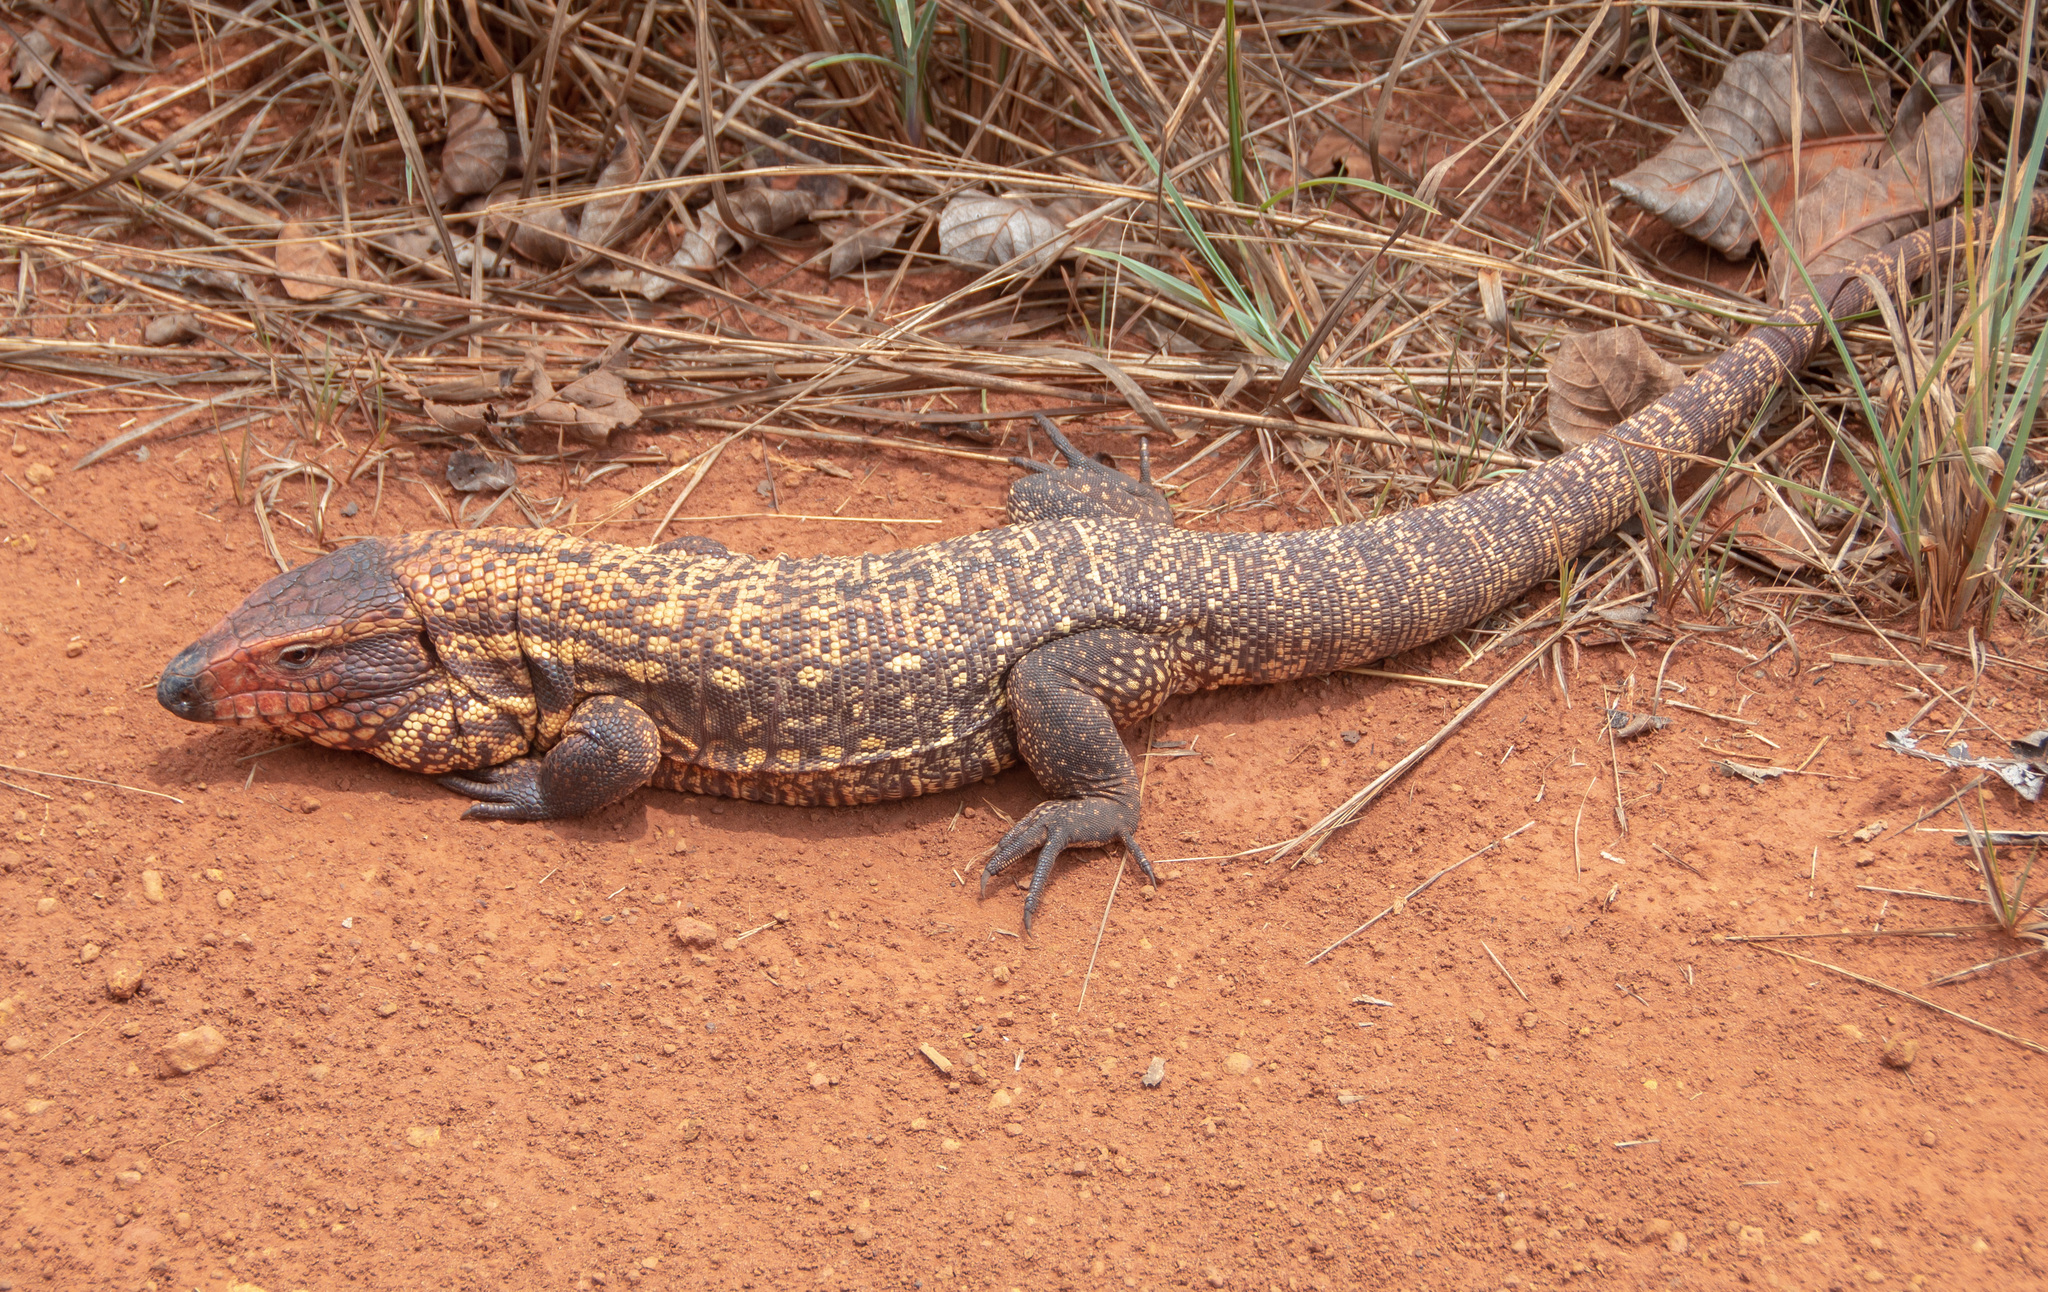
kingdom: Animalia
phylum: Chordata
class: Squamata
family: Teiidae
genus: Salvator
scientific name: Salvator duseni
